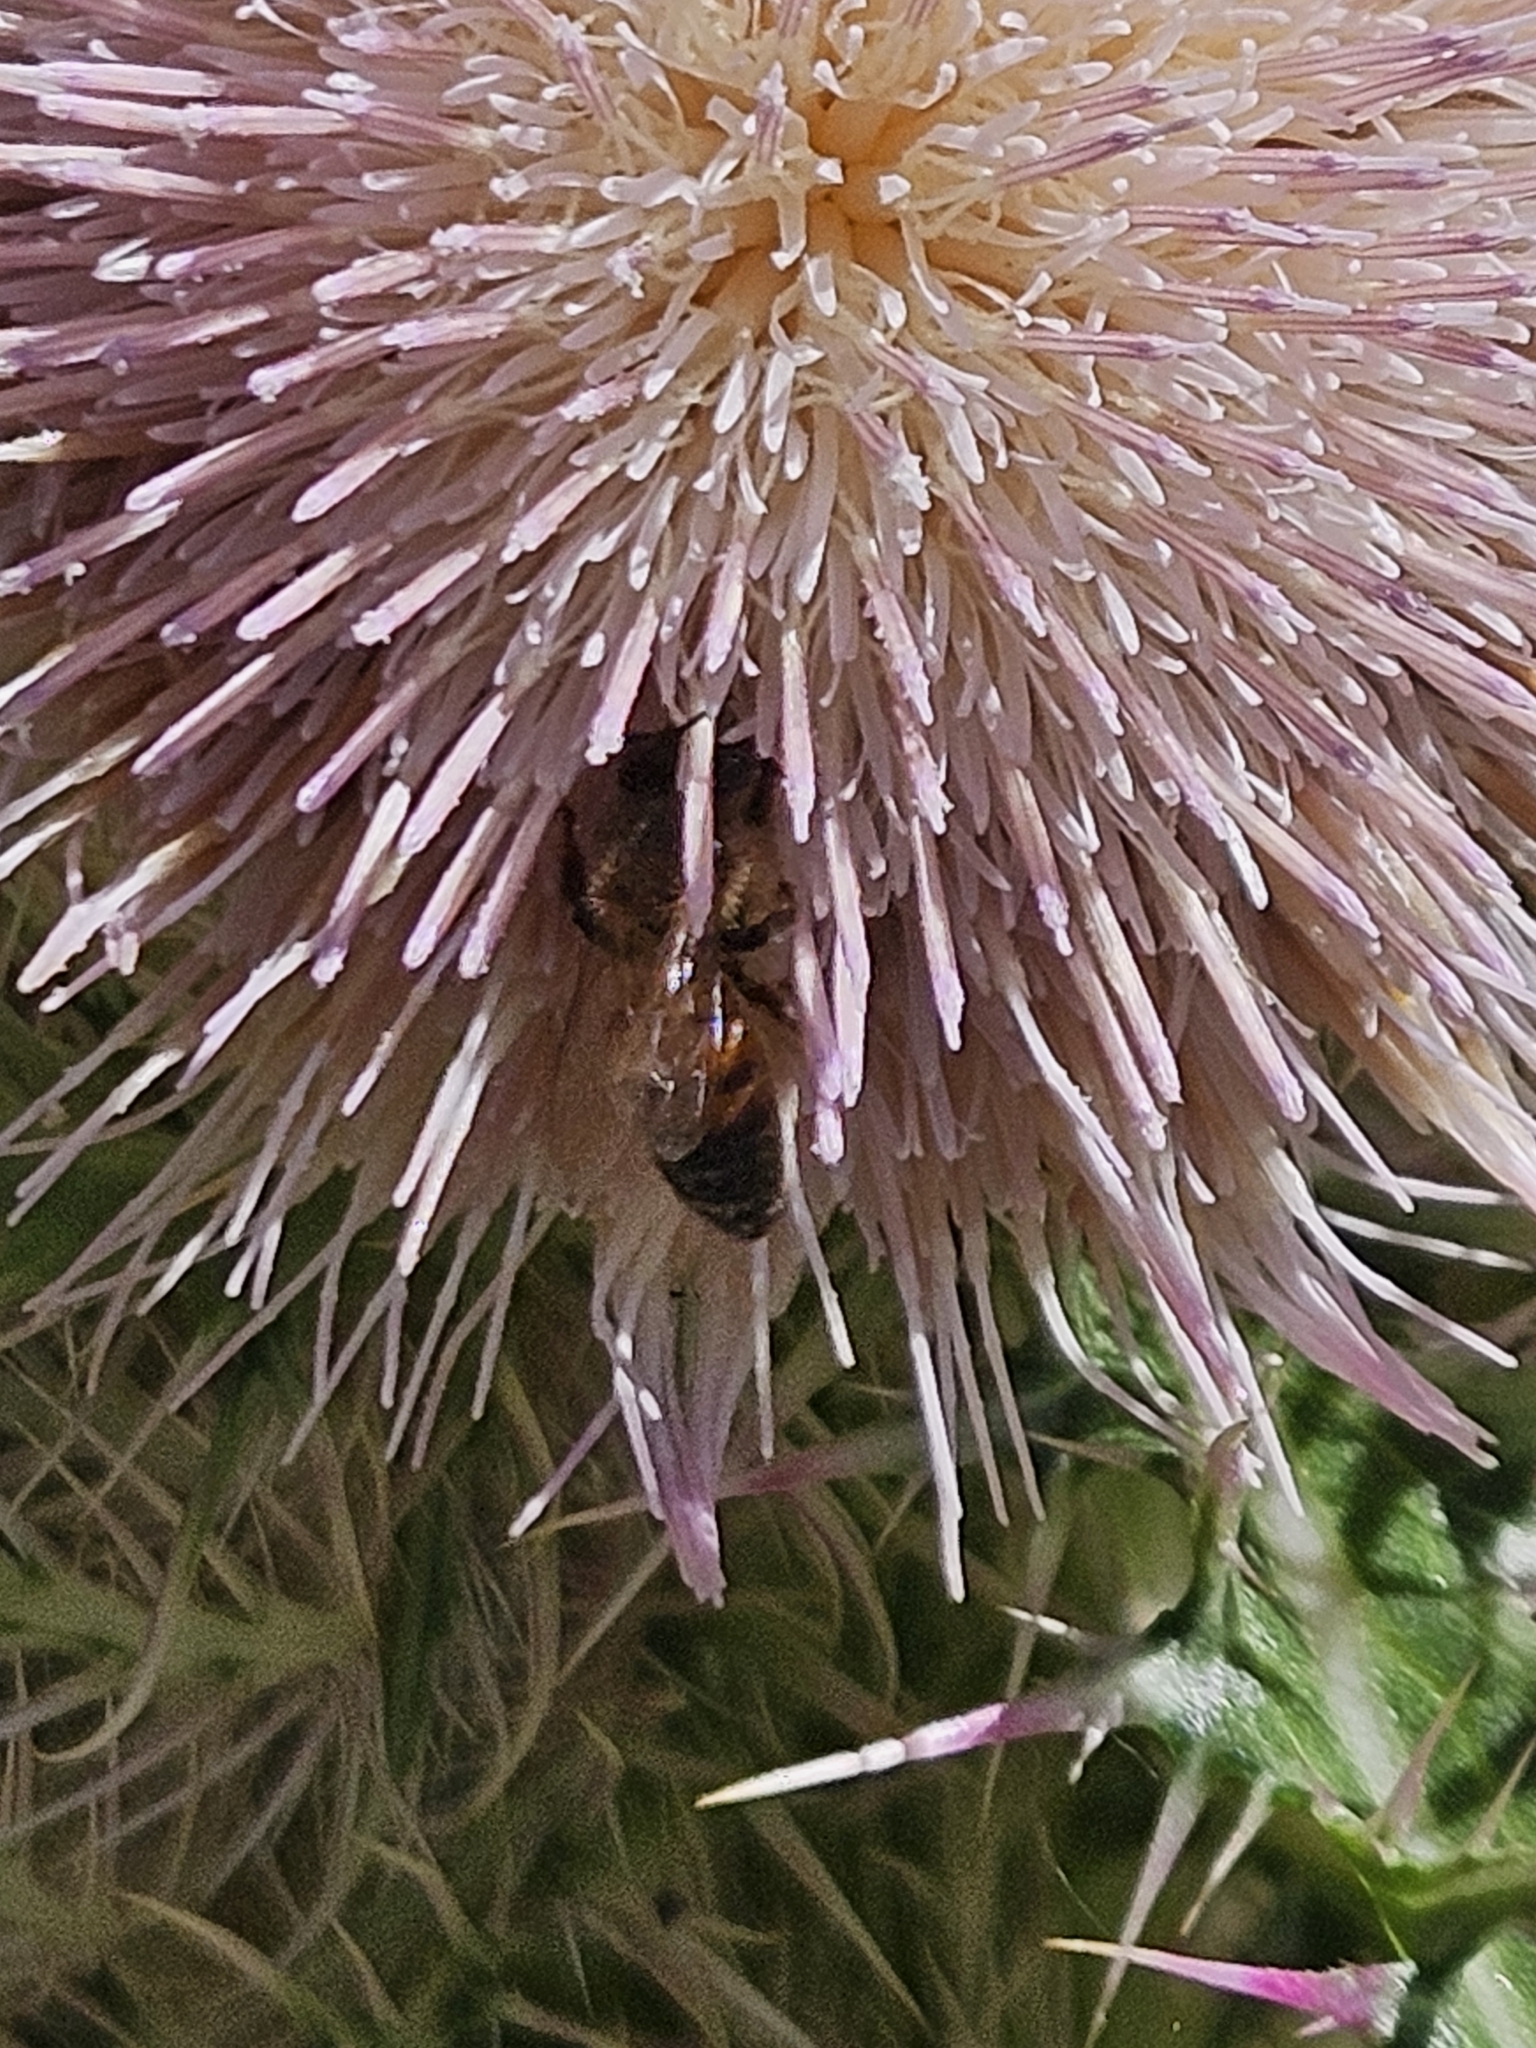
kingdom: Animalia
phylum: Arthropoda
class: Insecta
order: Hymenoptera
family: Apidae
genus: Apis
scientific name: Apis mellifera
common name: Honey bee
